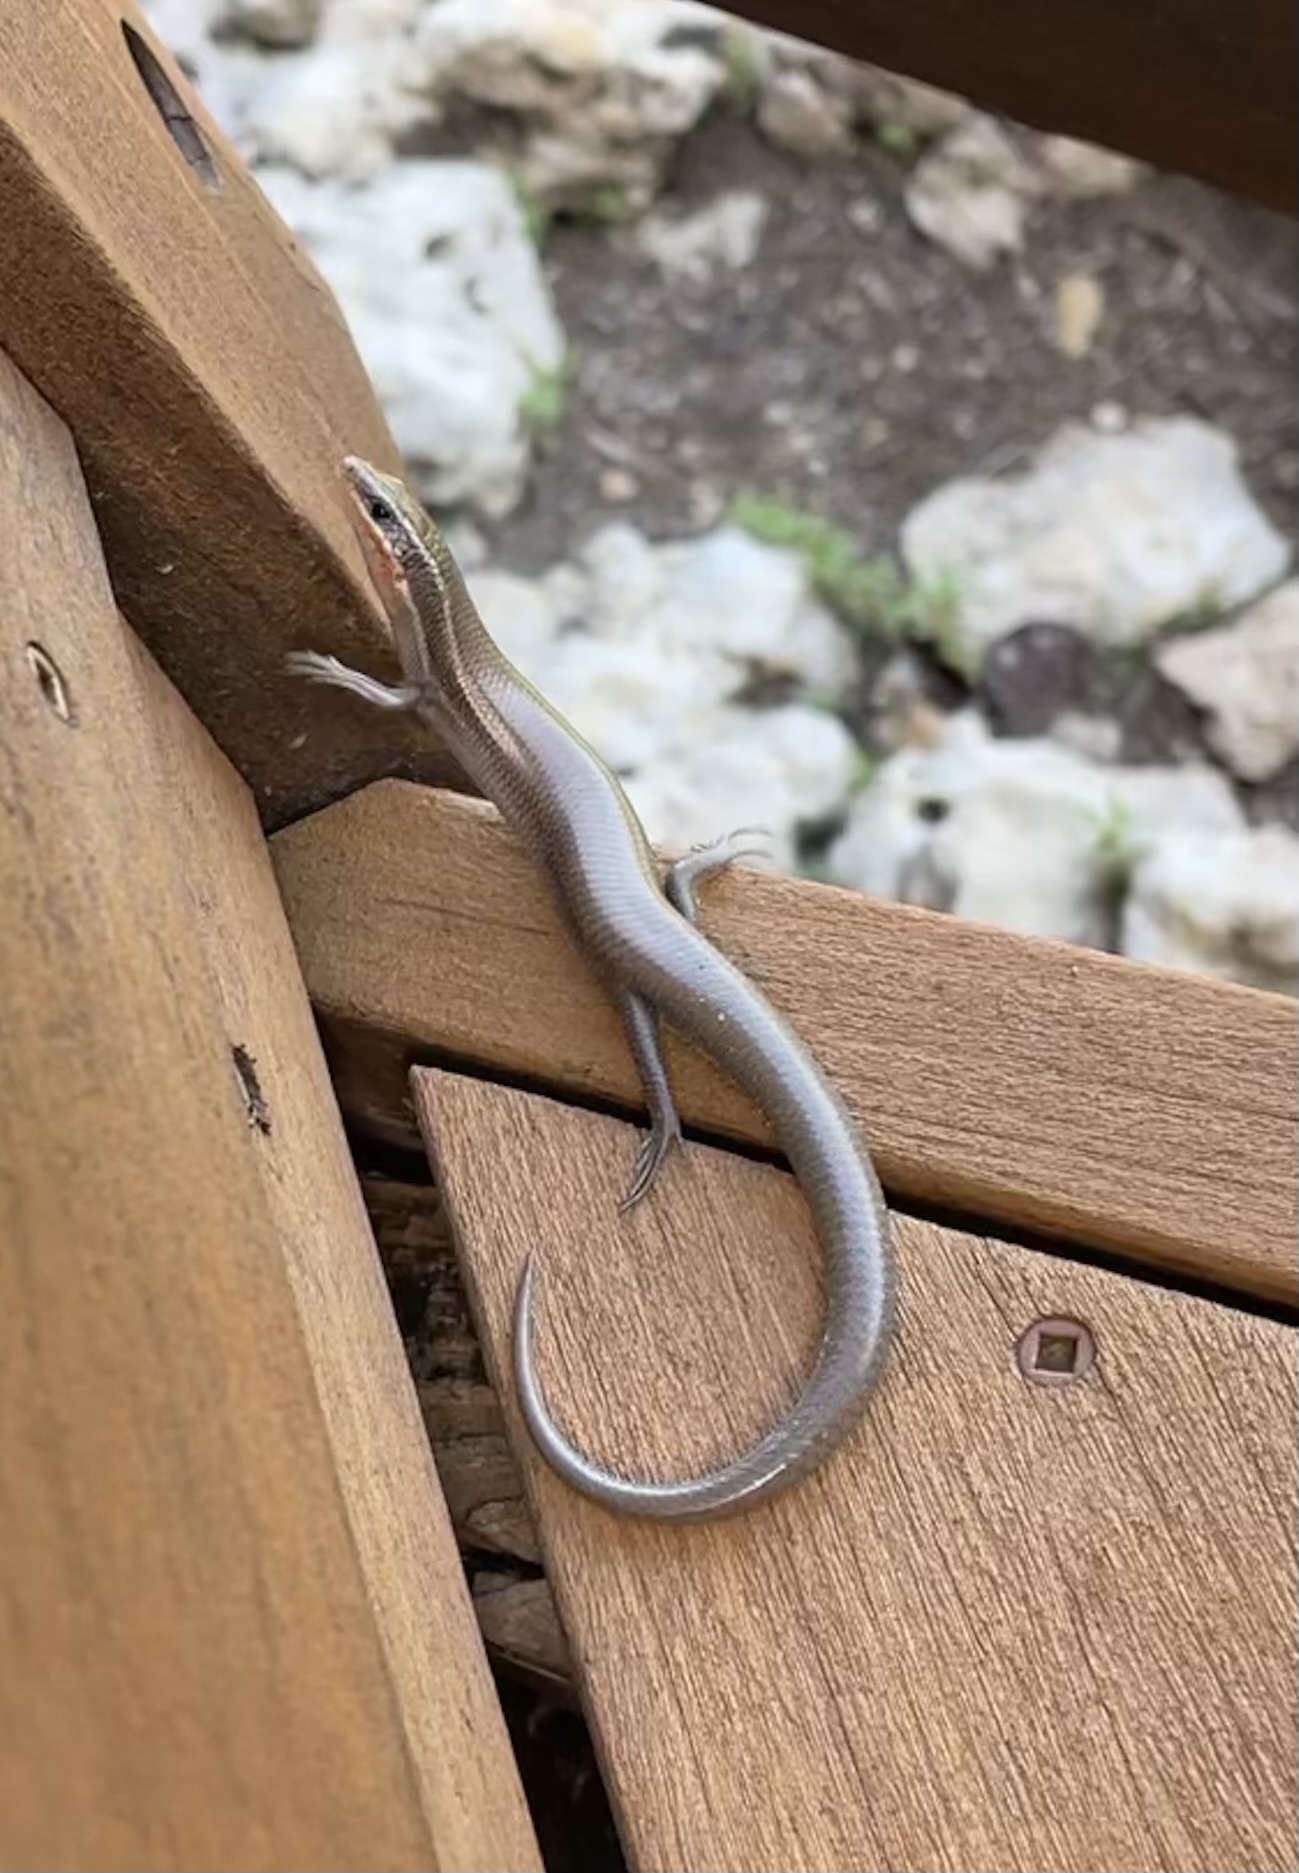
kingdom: Animalia
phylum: Chordata
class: Squamata
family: Scincidae
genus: Plestiodon
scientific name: Plestiodon tetragrammus
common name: Four-lined skink
